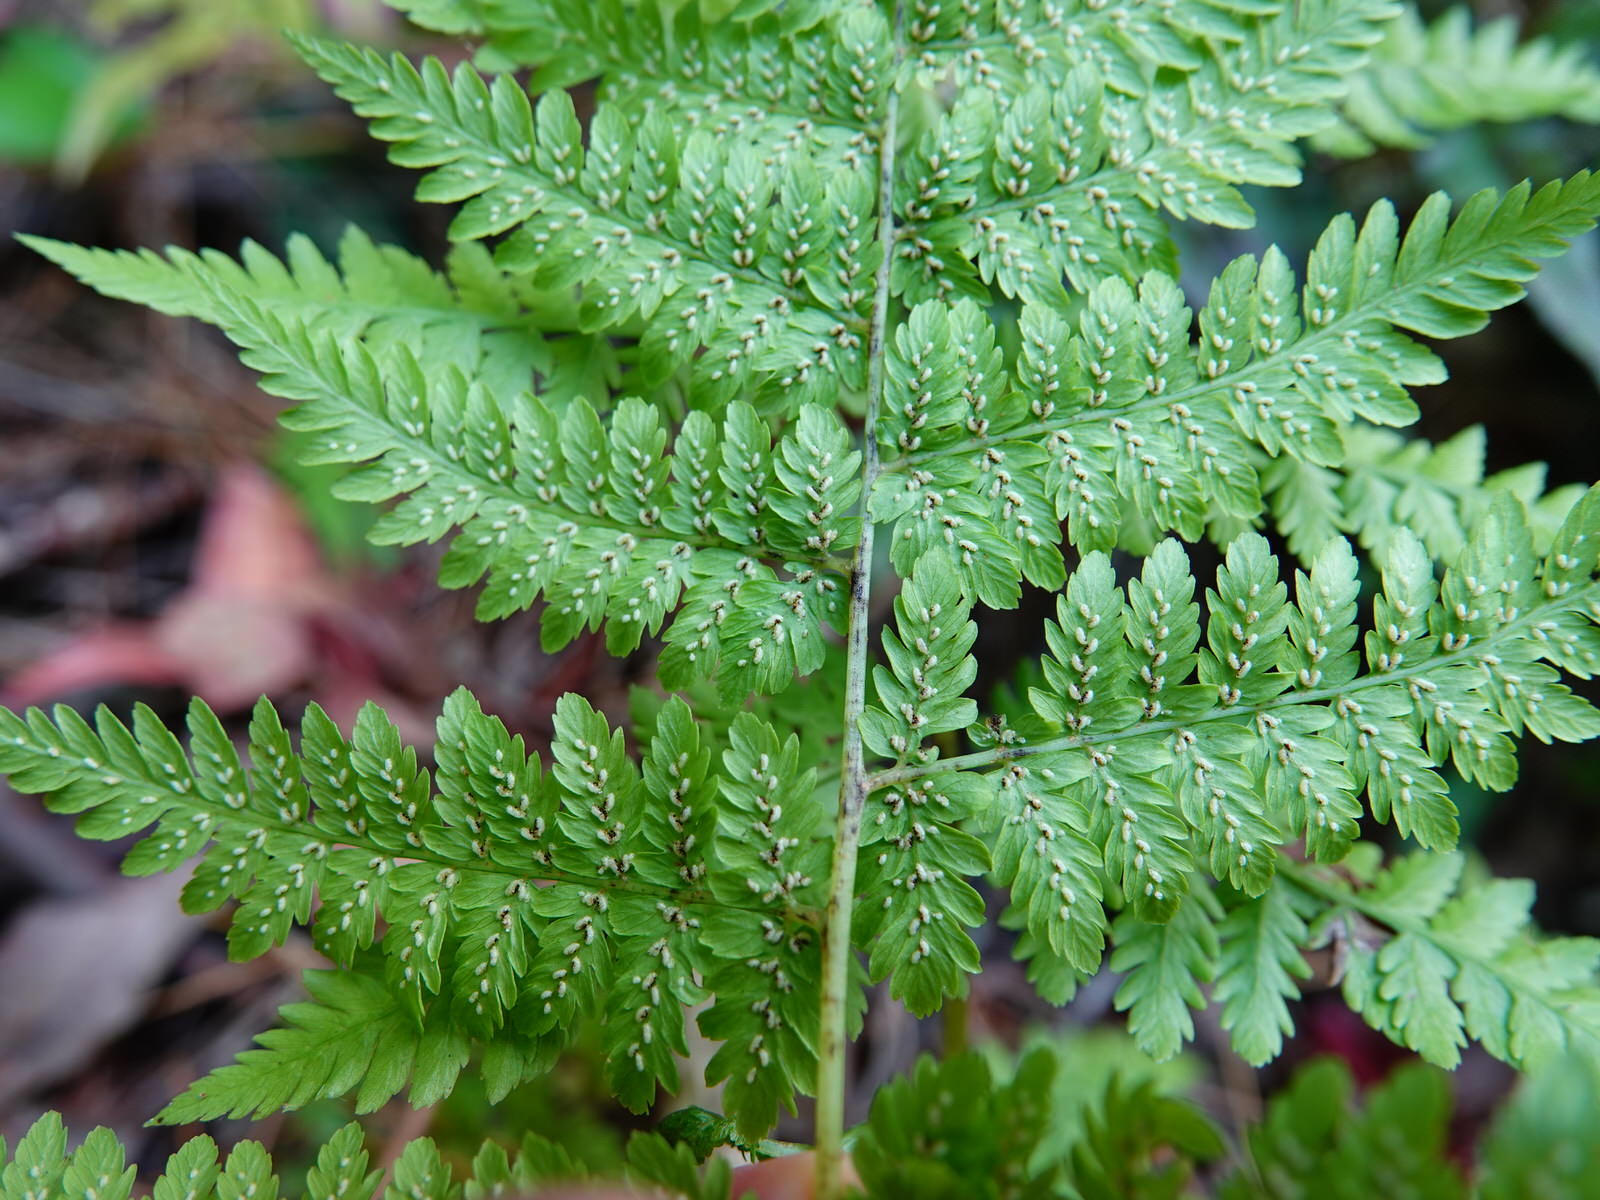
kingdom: Plantae
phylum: Tracheophyta
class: Polypodiopsida
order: Polypodiales
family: Athyriaceae
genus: Diplazium
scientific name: Diplazium australe
